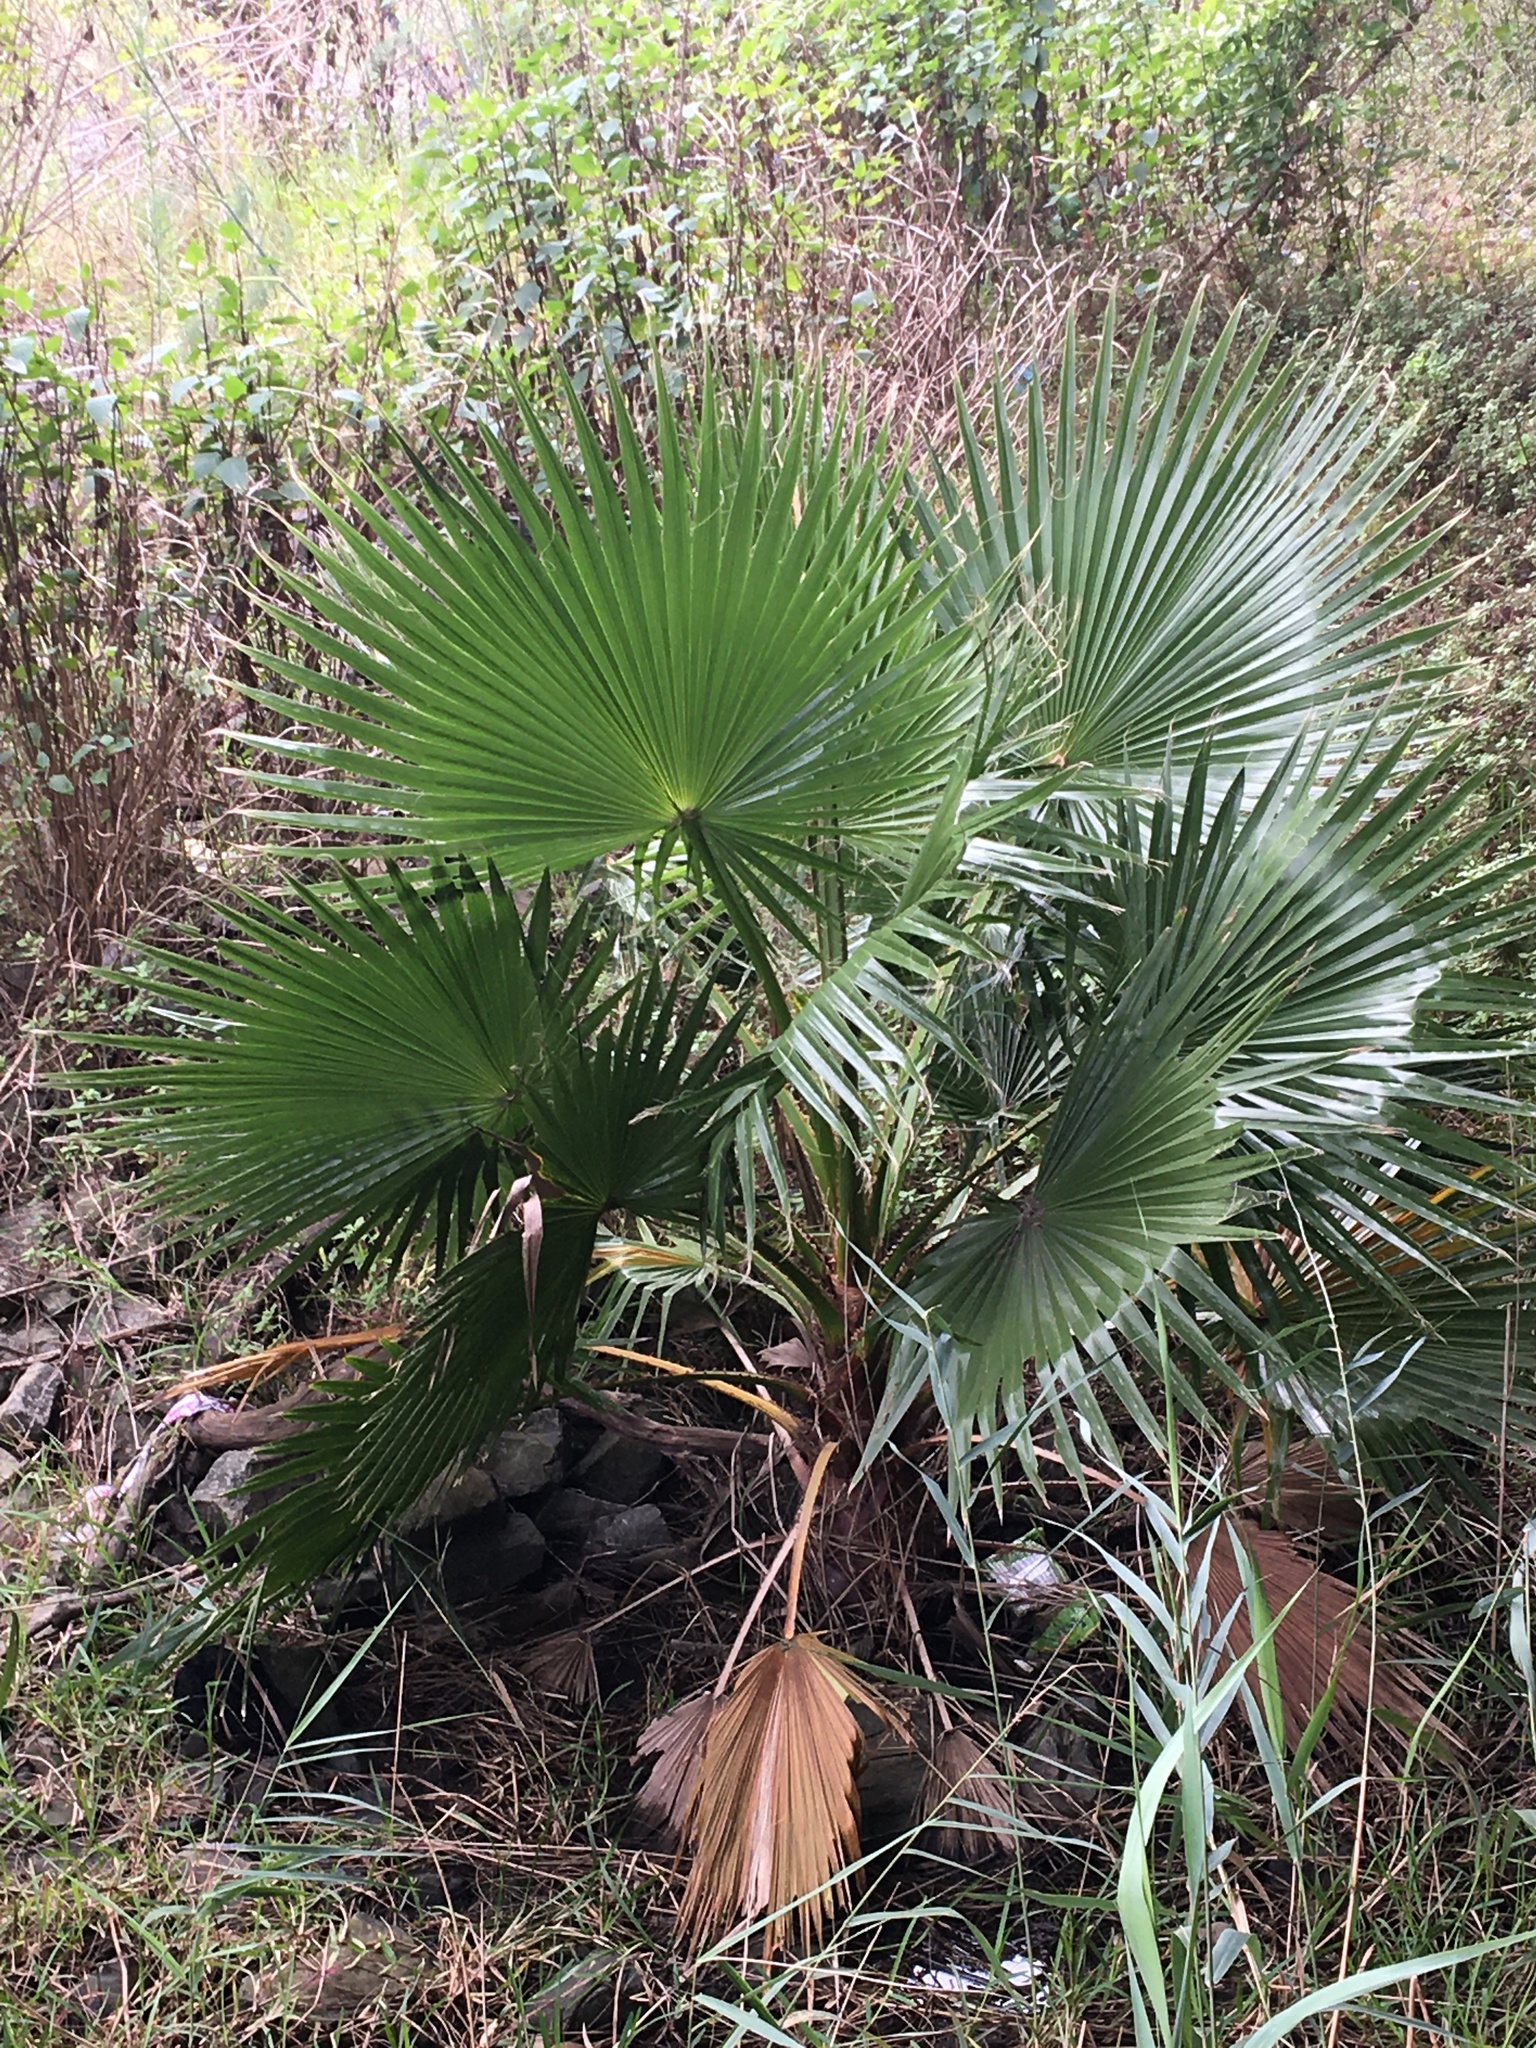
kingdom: Plantae
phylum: Tracheophyta
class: Liliopsida
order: Arecales
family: Arecaceae
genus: Livistona
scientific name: Livistona australis
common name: Cabbage fan palm
